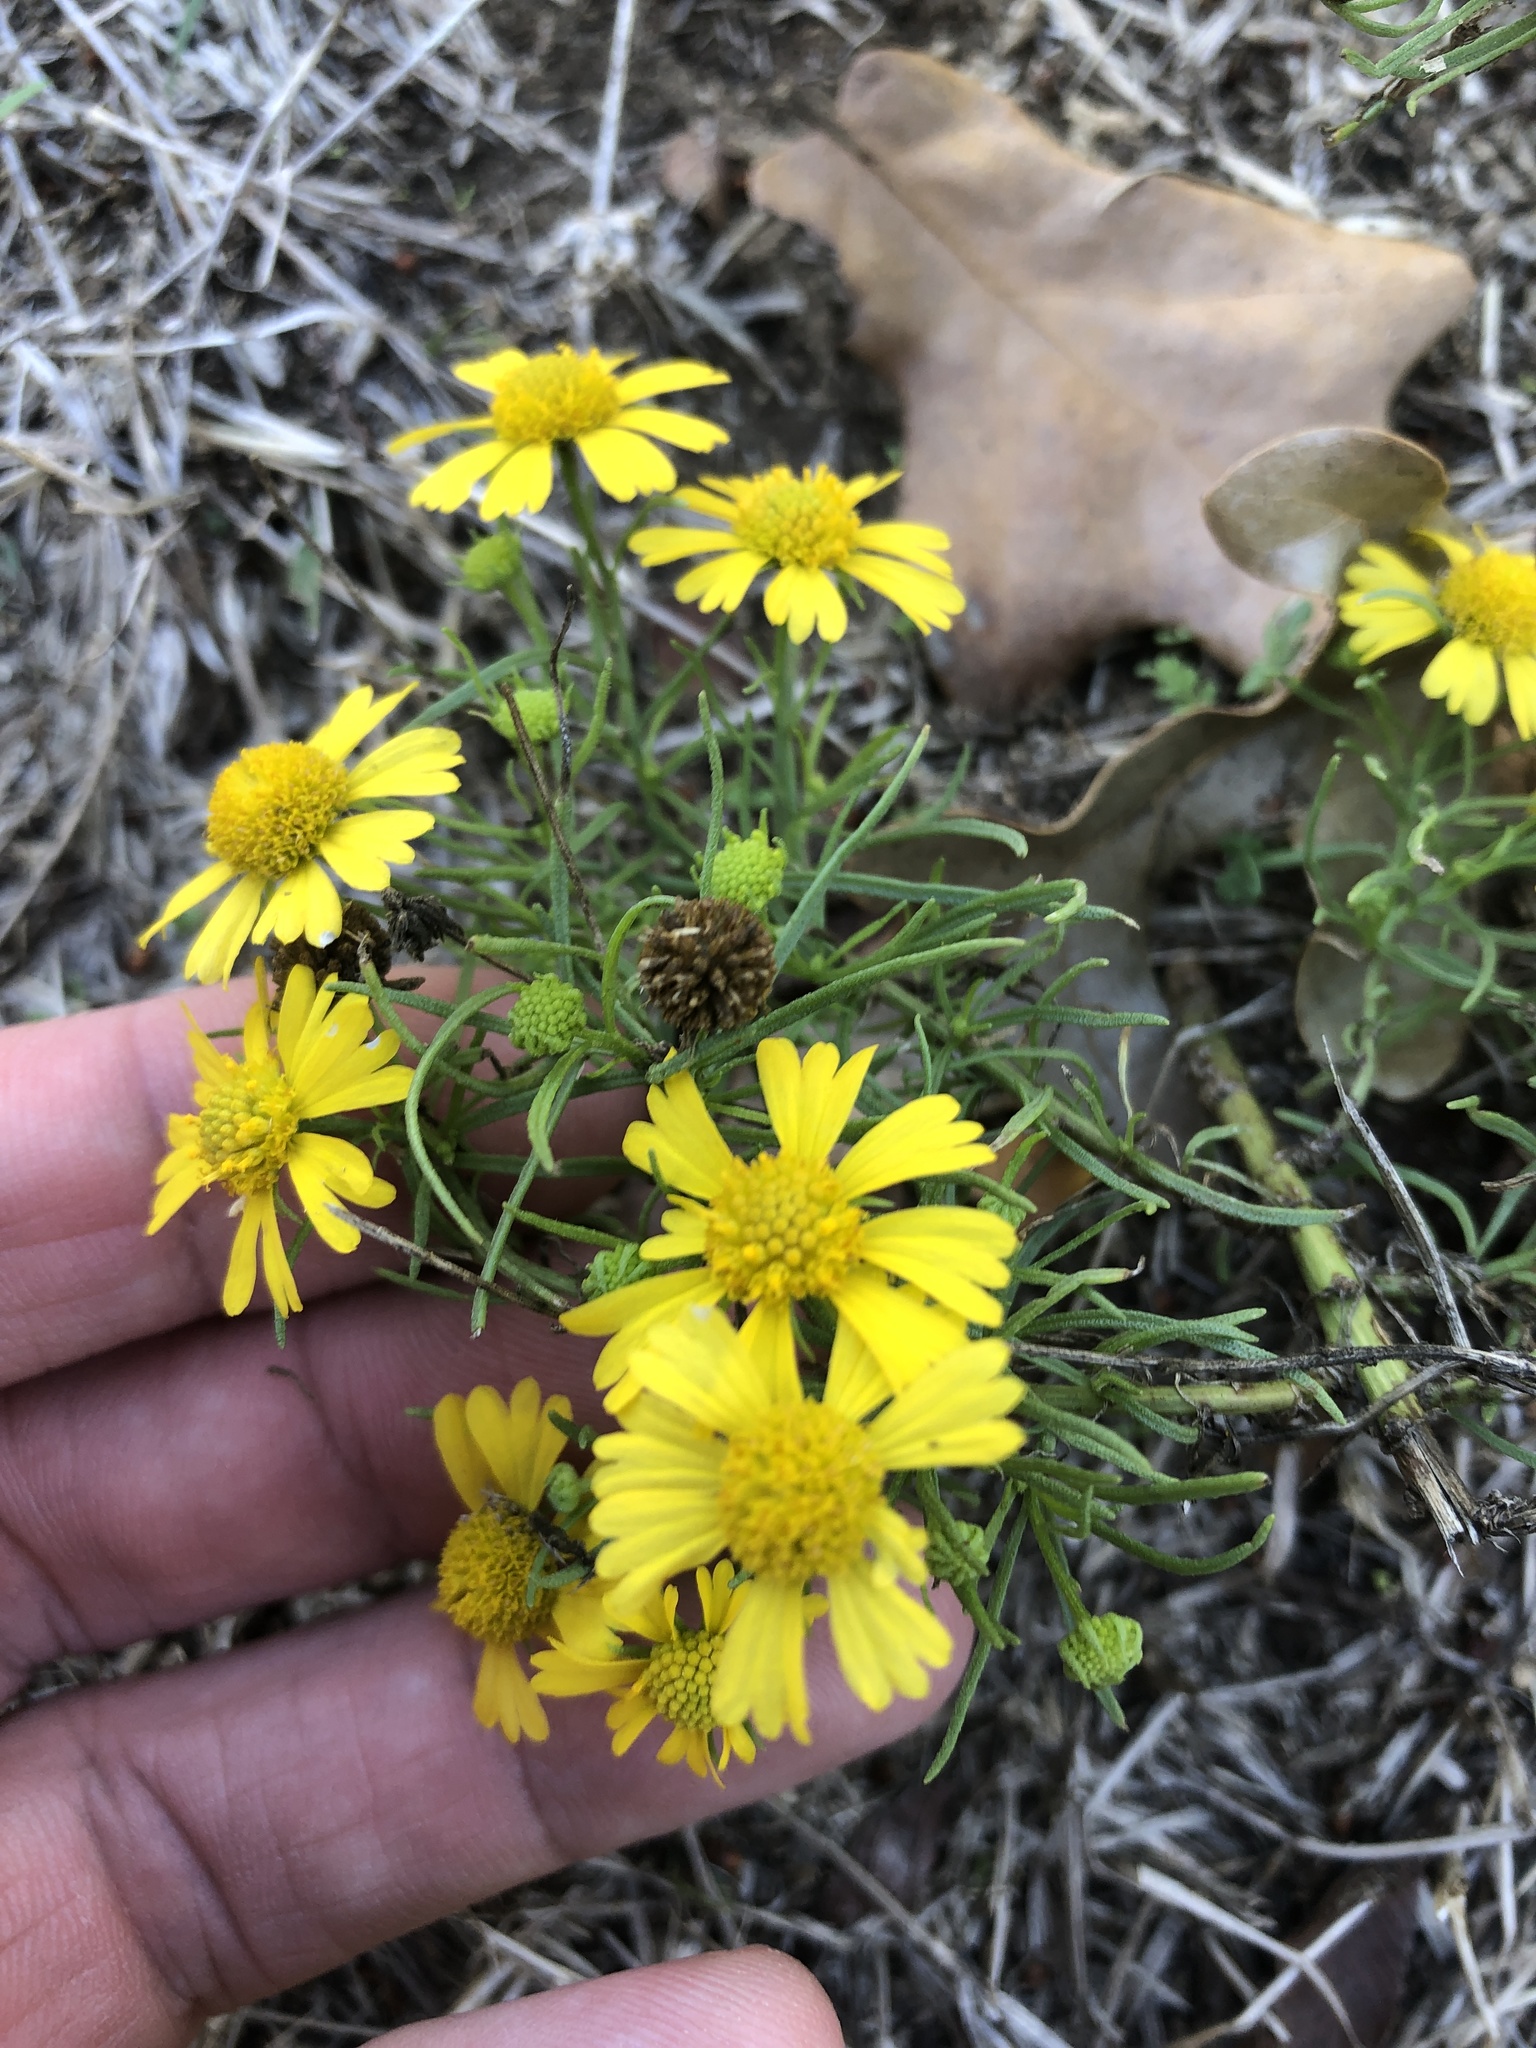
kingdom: Plantae
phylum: Tracheophyta
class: Magnoliopsida
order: Asterales
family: Asteraceae
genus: Helenium
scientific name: Helenium amarum
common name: Bitter sneezeweed
